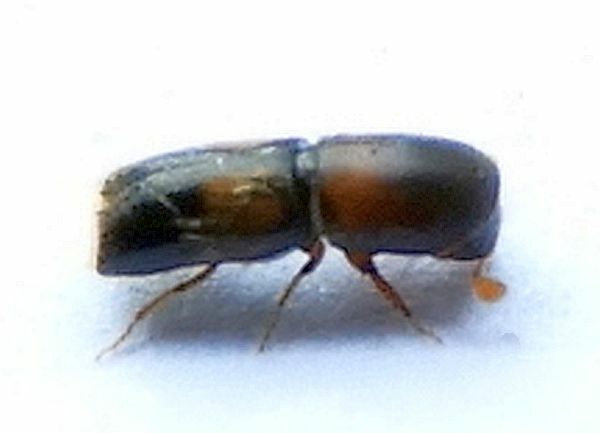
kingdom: Animalia
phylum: Arthropoda
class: Insecta
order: Coleoptera
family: Curculionidae
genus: Monarthrum
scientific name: Monarthrum fasciatum
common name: Yellow-banded timber beetle
